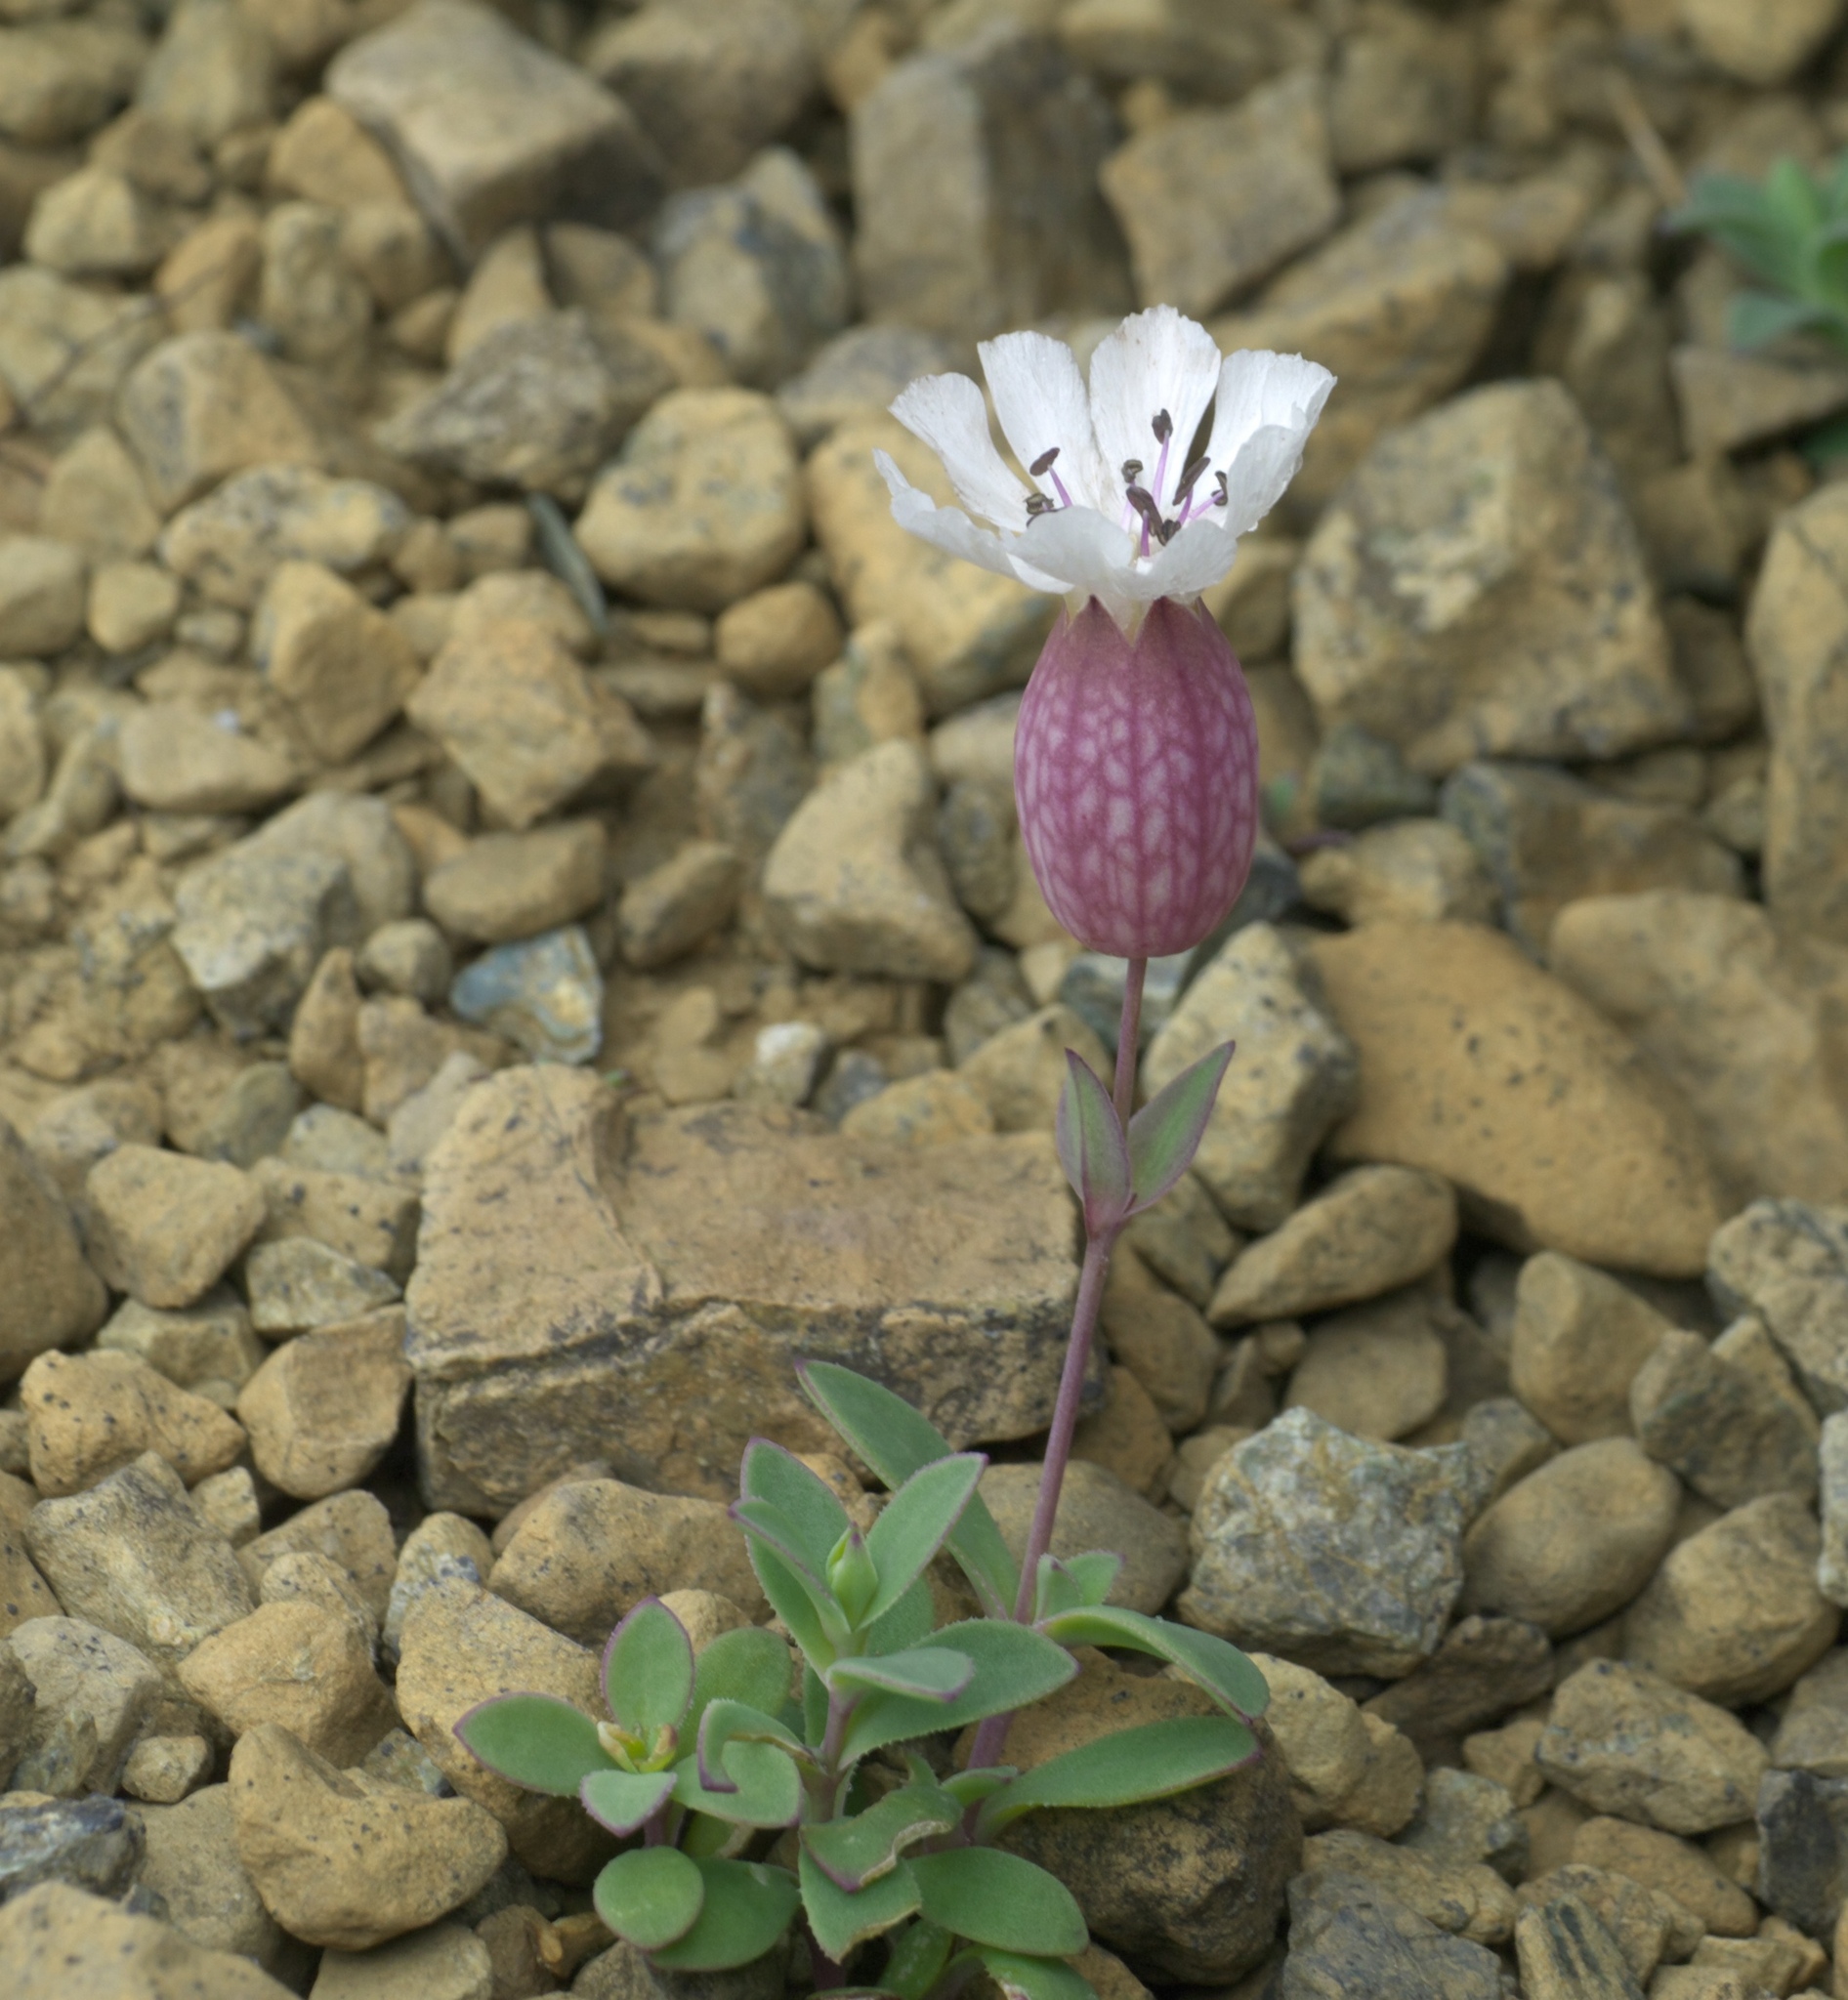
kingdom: Plantae
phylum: Tracheophyta
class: Magnoliopsida
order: Caryophyllales
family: Caryophyllaceae
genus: Silene
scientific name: Silene uniflora
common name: Sea campion
